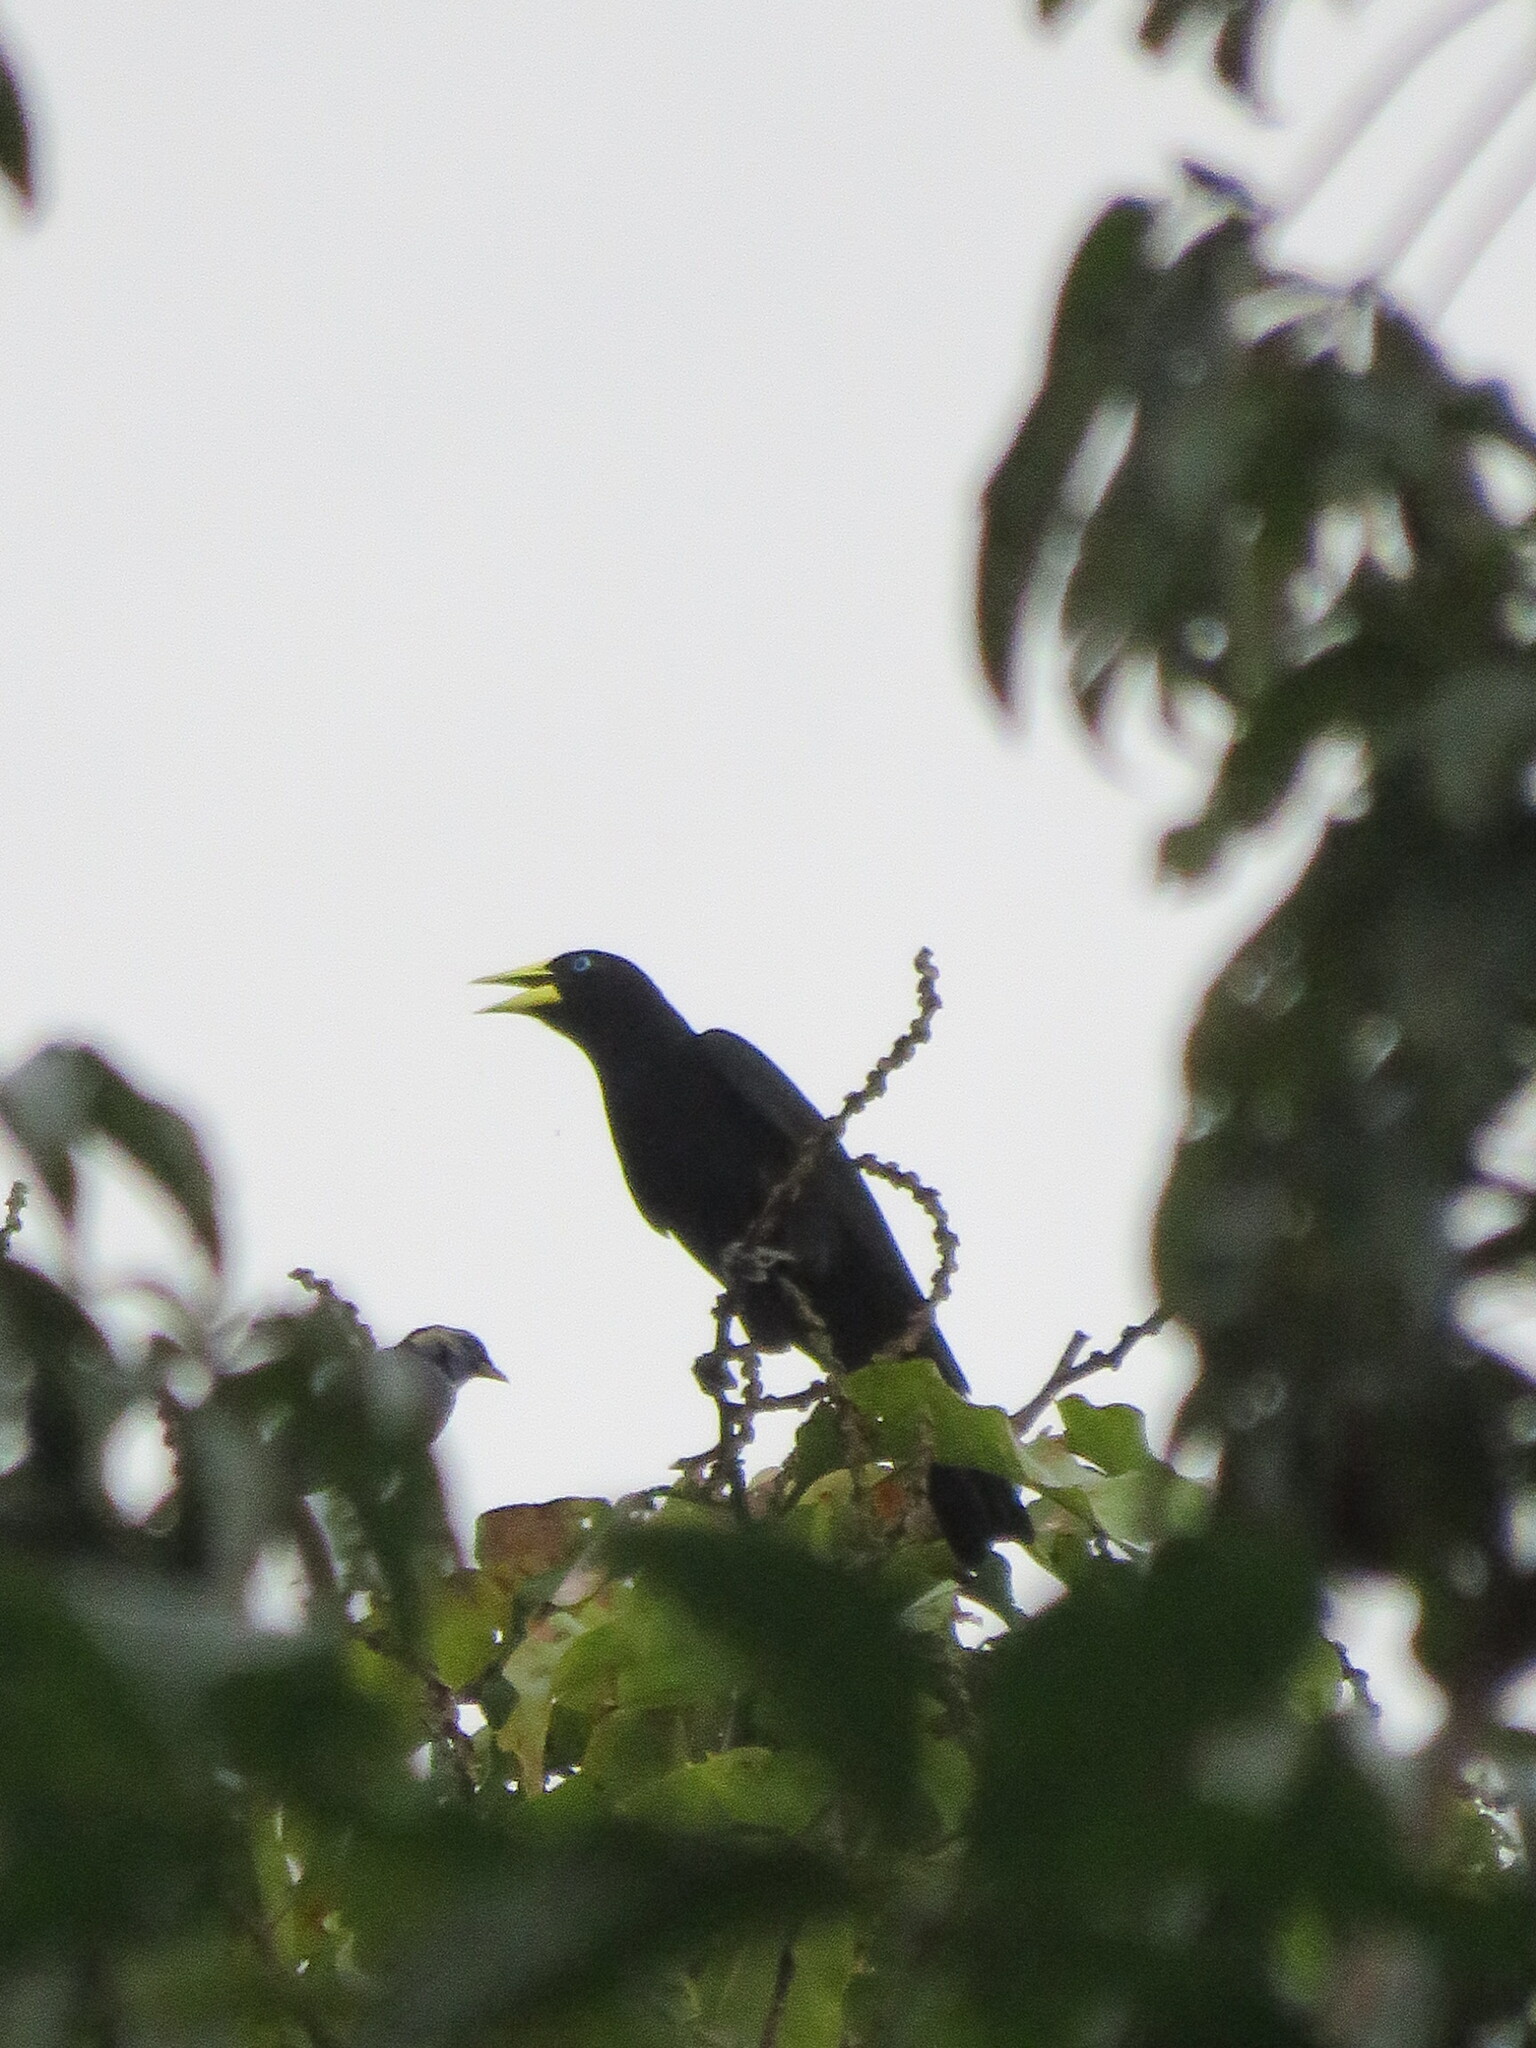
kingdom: Animalia
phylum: Chordata
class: Aves
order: Passeriformes
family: Icteridae
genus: Cacicus
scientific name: Cacicus haemorrhous
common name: Red-rumped cacique
